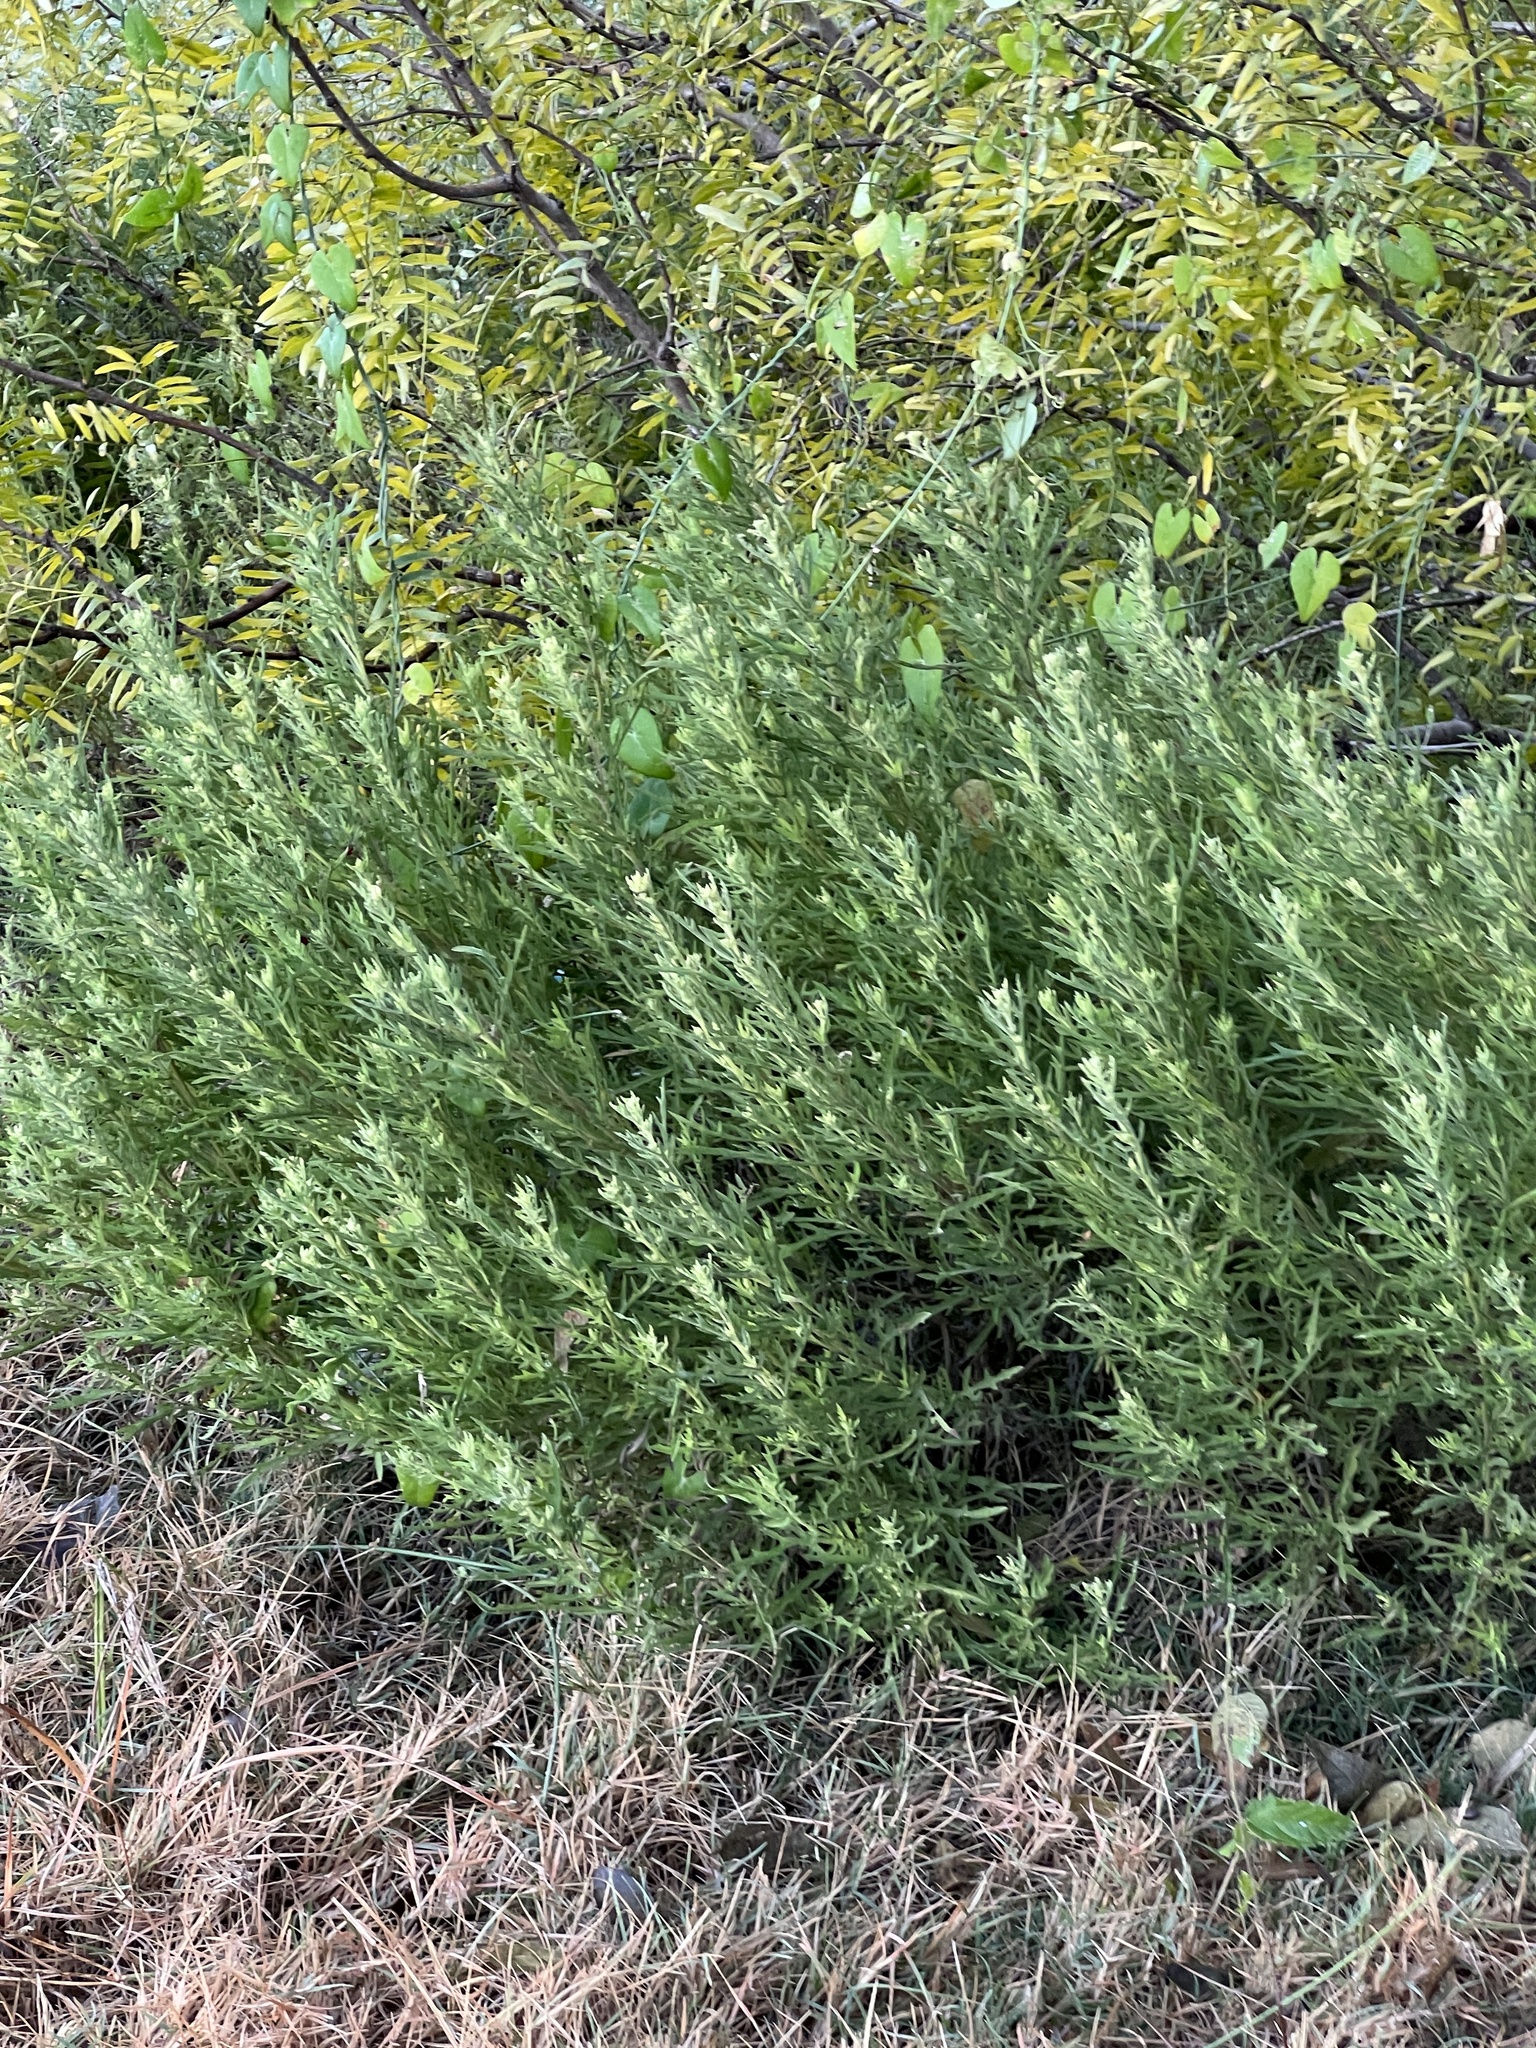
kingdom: Plantae
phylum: Tracheophyta
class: Magnoliopsida
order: Asterales
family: Asteraceae
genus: Ambrosia
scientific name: Ambrosia psilostachya
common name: Perennial ragweed
